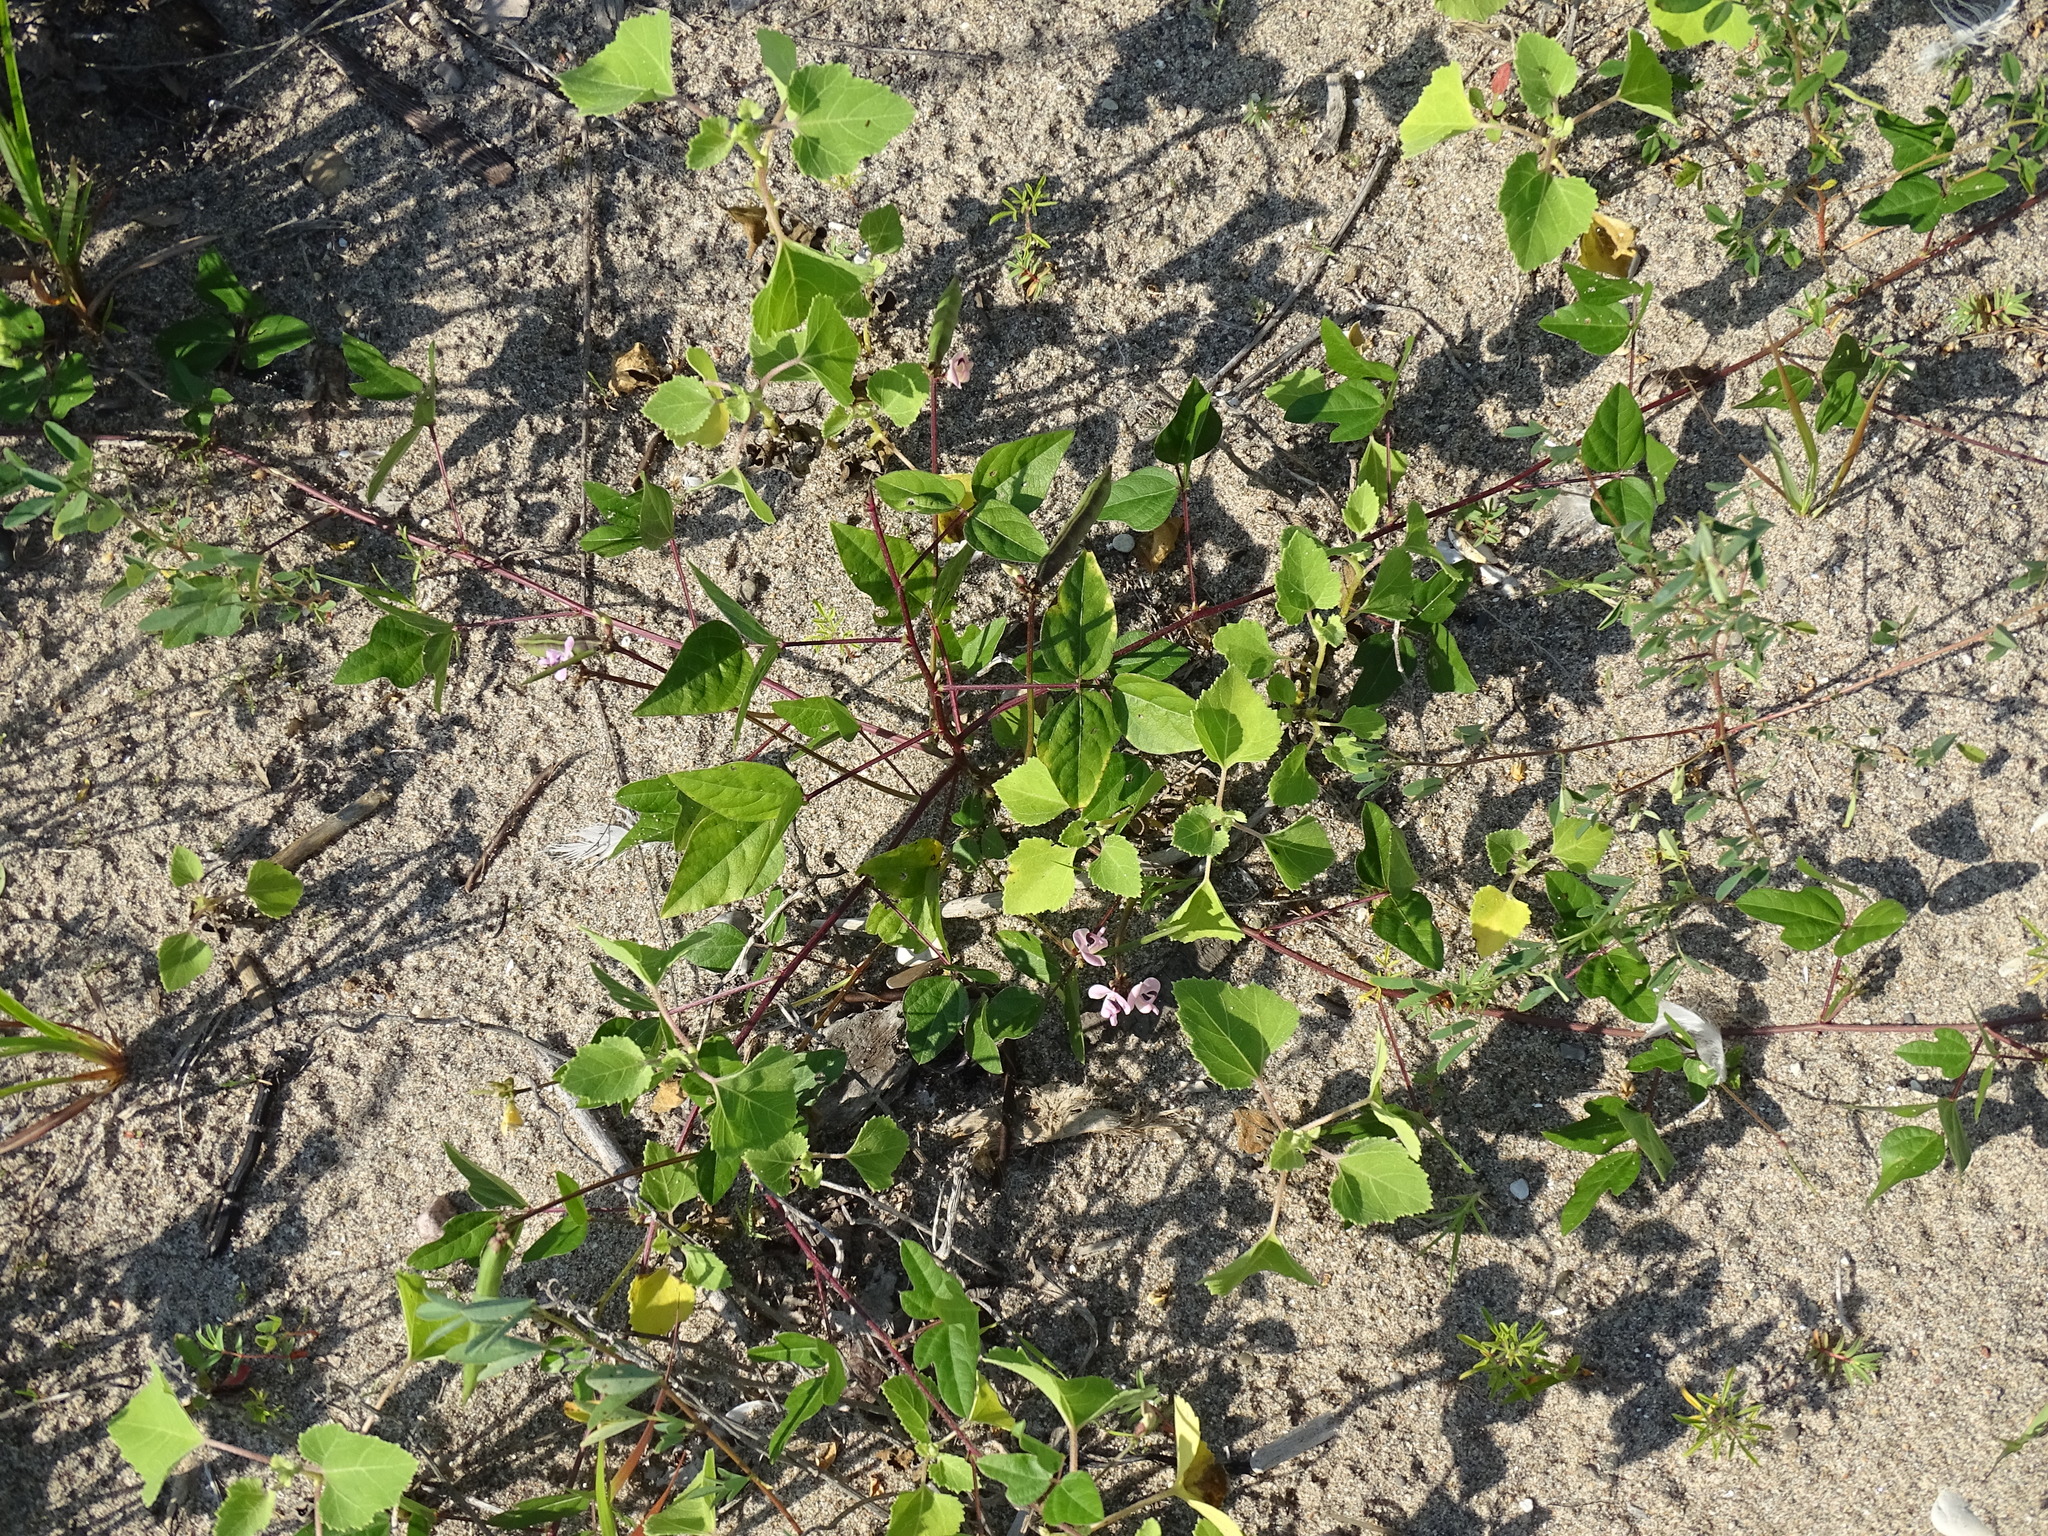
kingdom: Plantae
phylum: Tracheophyta
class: Magnoliopsida
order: Fabales
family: Fabaceae
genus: Strophostyles
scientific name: Strophostyles helvola
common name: Trailing wild bean
